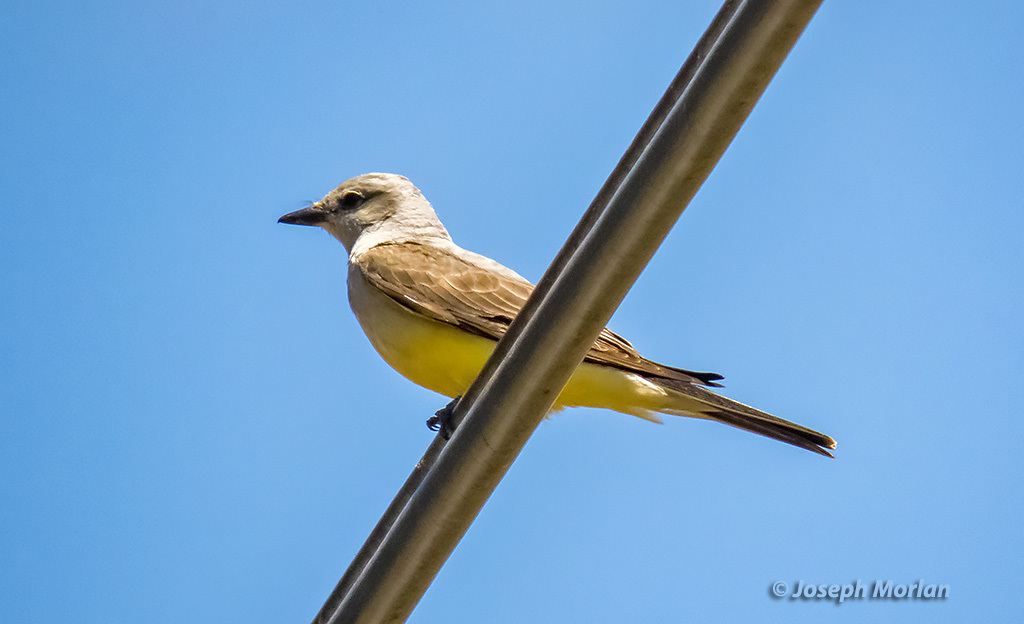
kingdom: Animalia
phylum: Chordata
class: Aves
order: Passeriformes
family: Tyrannidae
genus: Tyrannus
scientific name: Tyrannus verticalis
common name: Western kingbird
